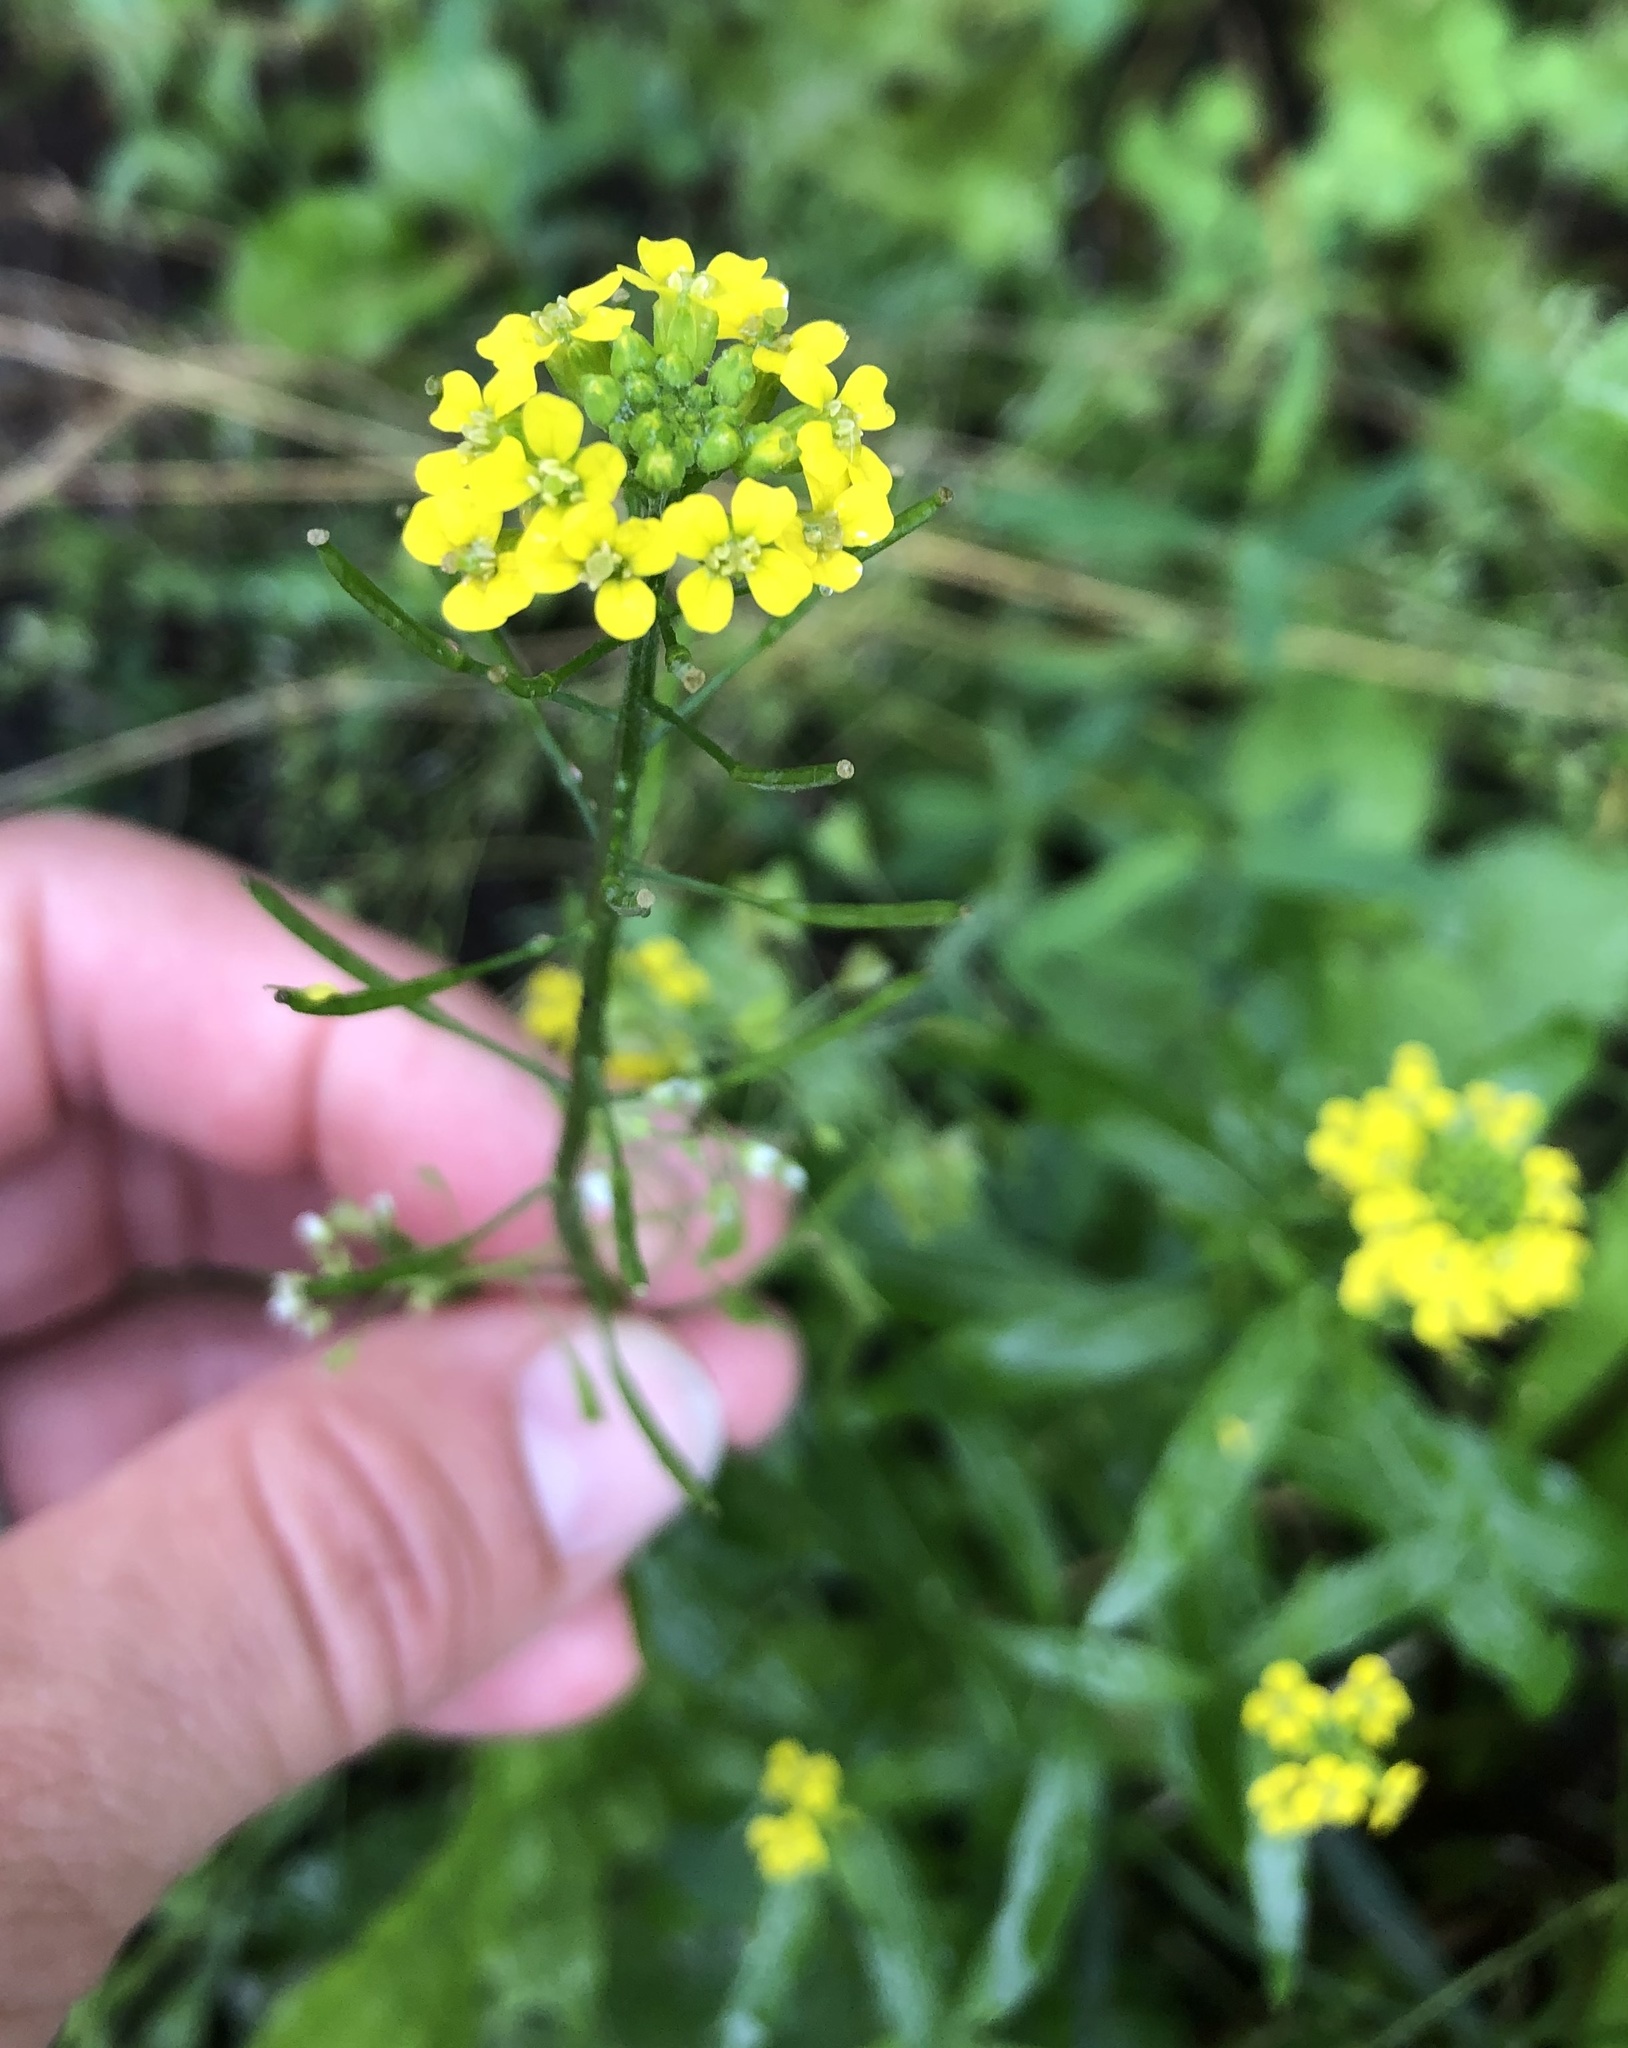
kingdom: Plantae
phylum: Tracheophyta
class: Magnoliopsida
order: Brassicales
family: Brassicaceae
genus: Erysimum
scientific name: Erysimum cheiranthoides
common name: Treacle mustard
